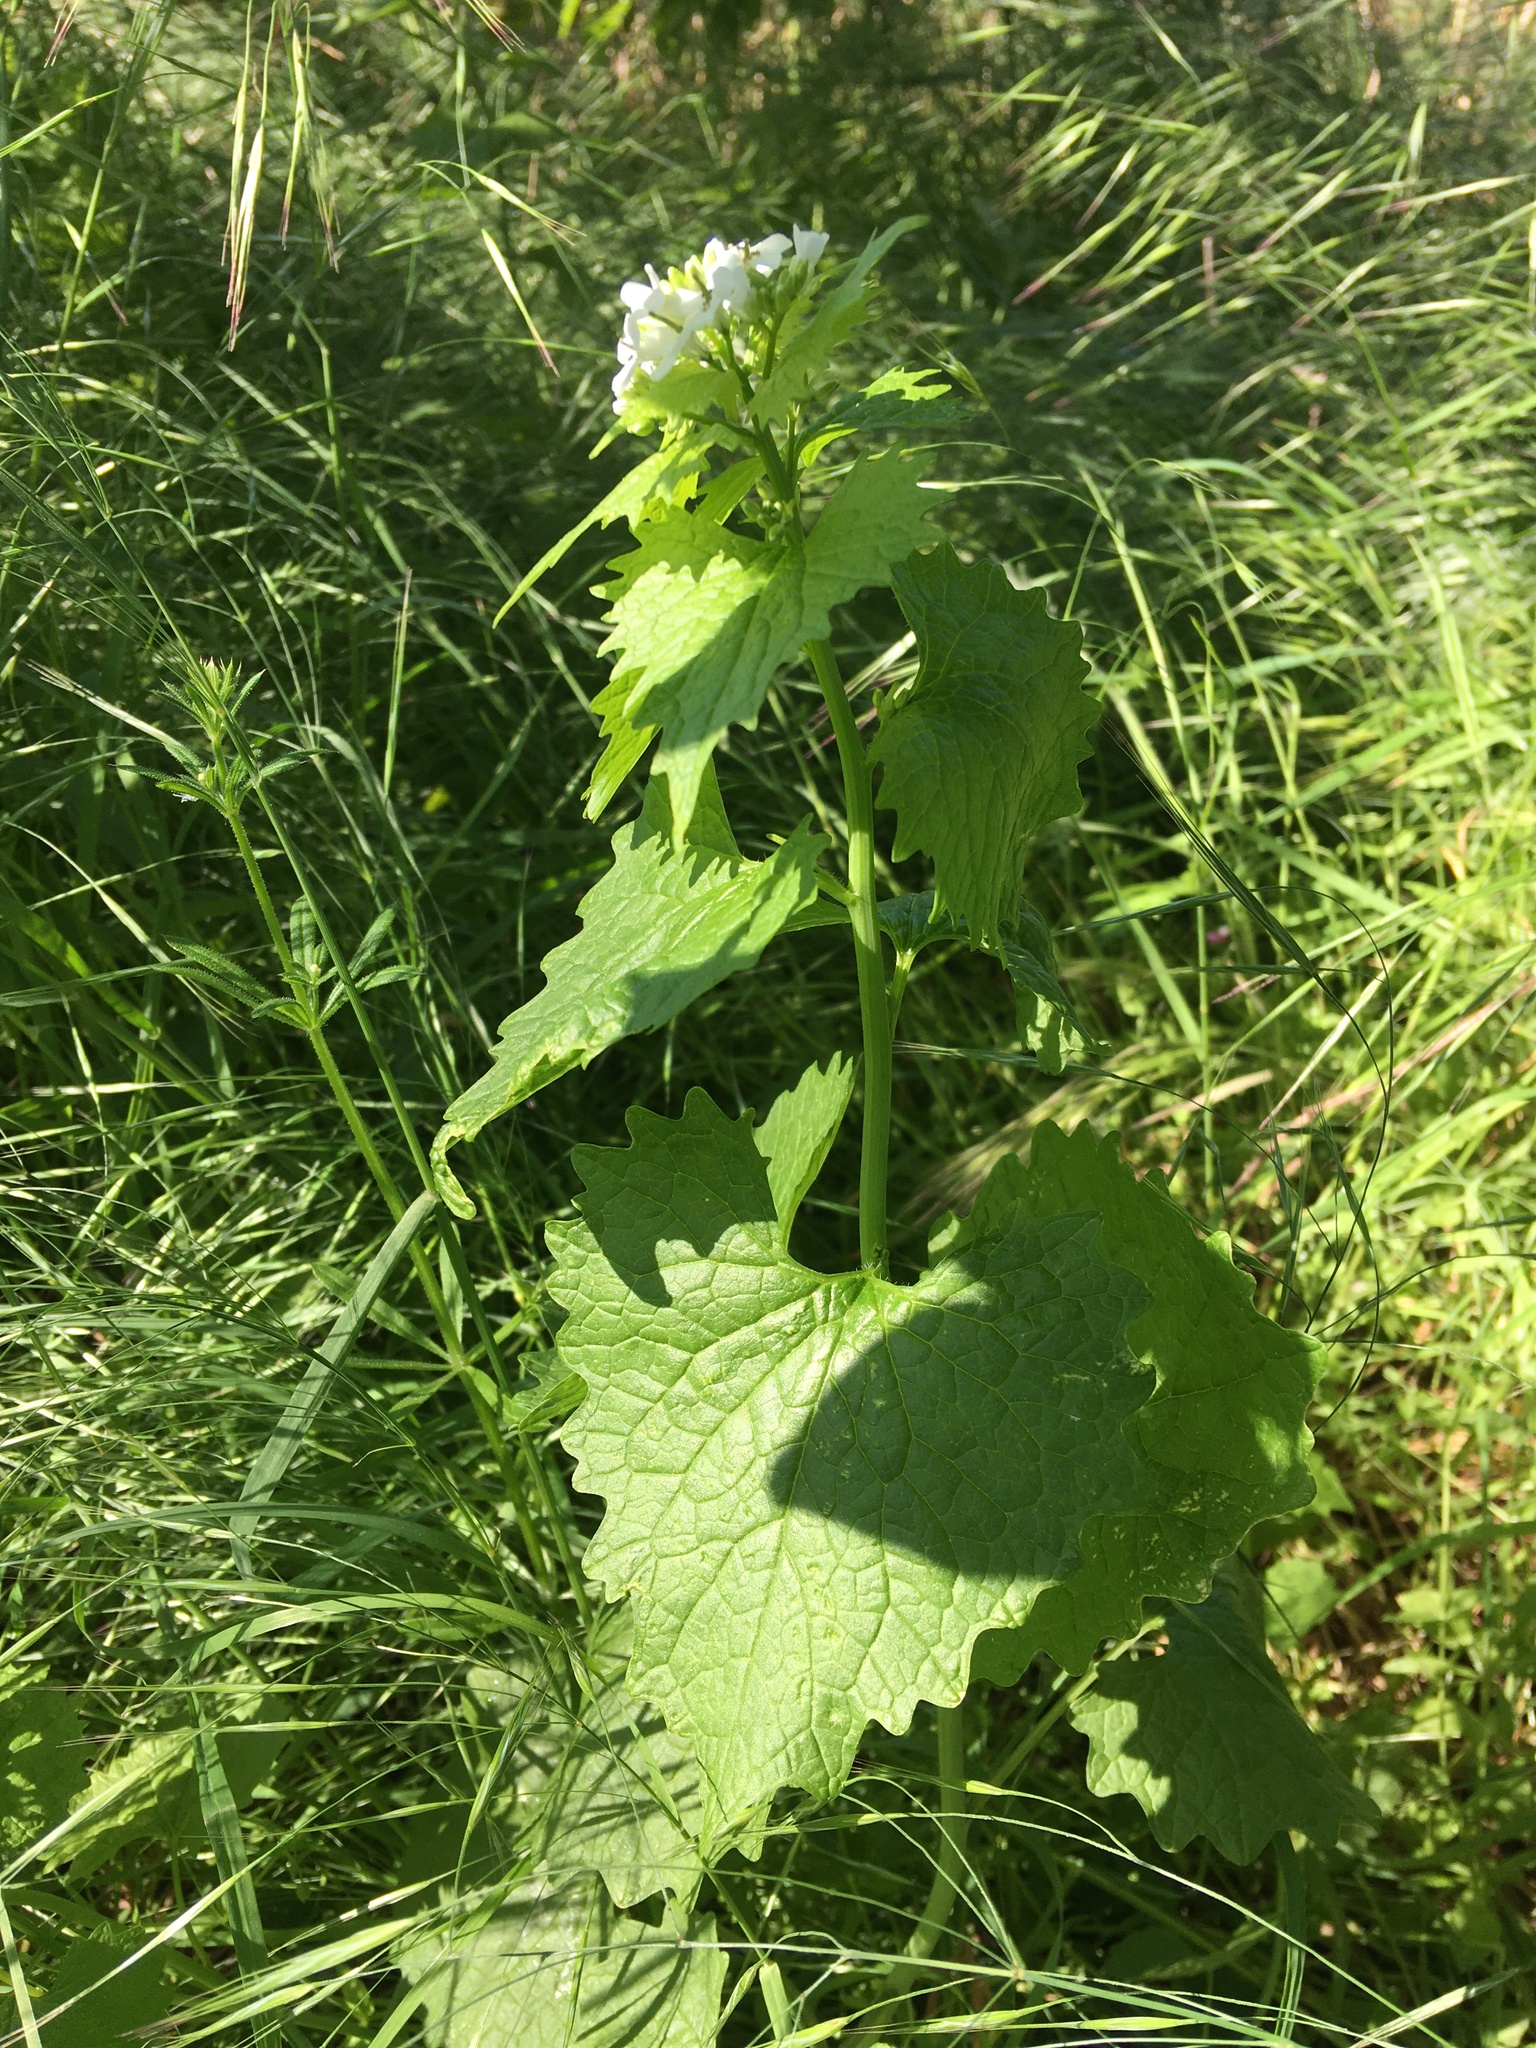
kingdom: Plantae
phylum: Tracheophyta
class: Magnoliopsida
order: Brassicales
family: Brassicaceae
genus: Alliaria
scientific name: Alliaria petiolata
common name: Garlic mustard
